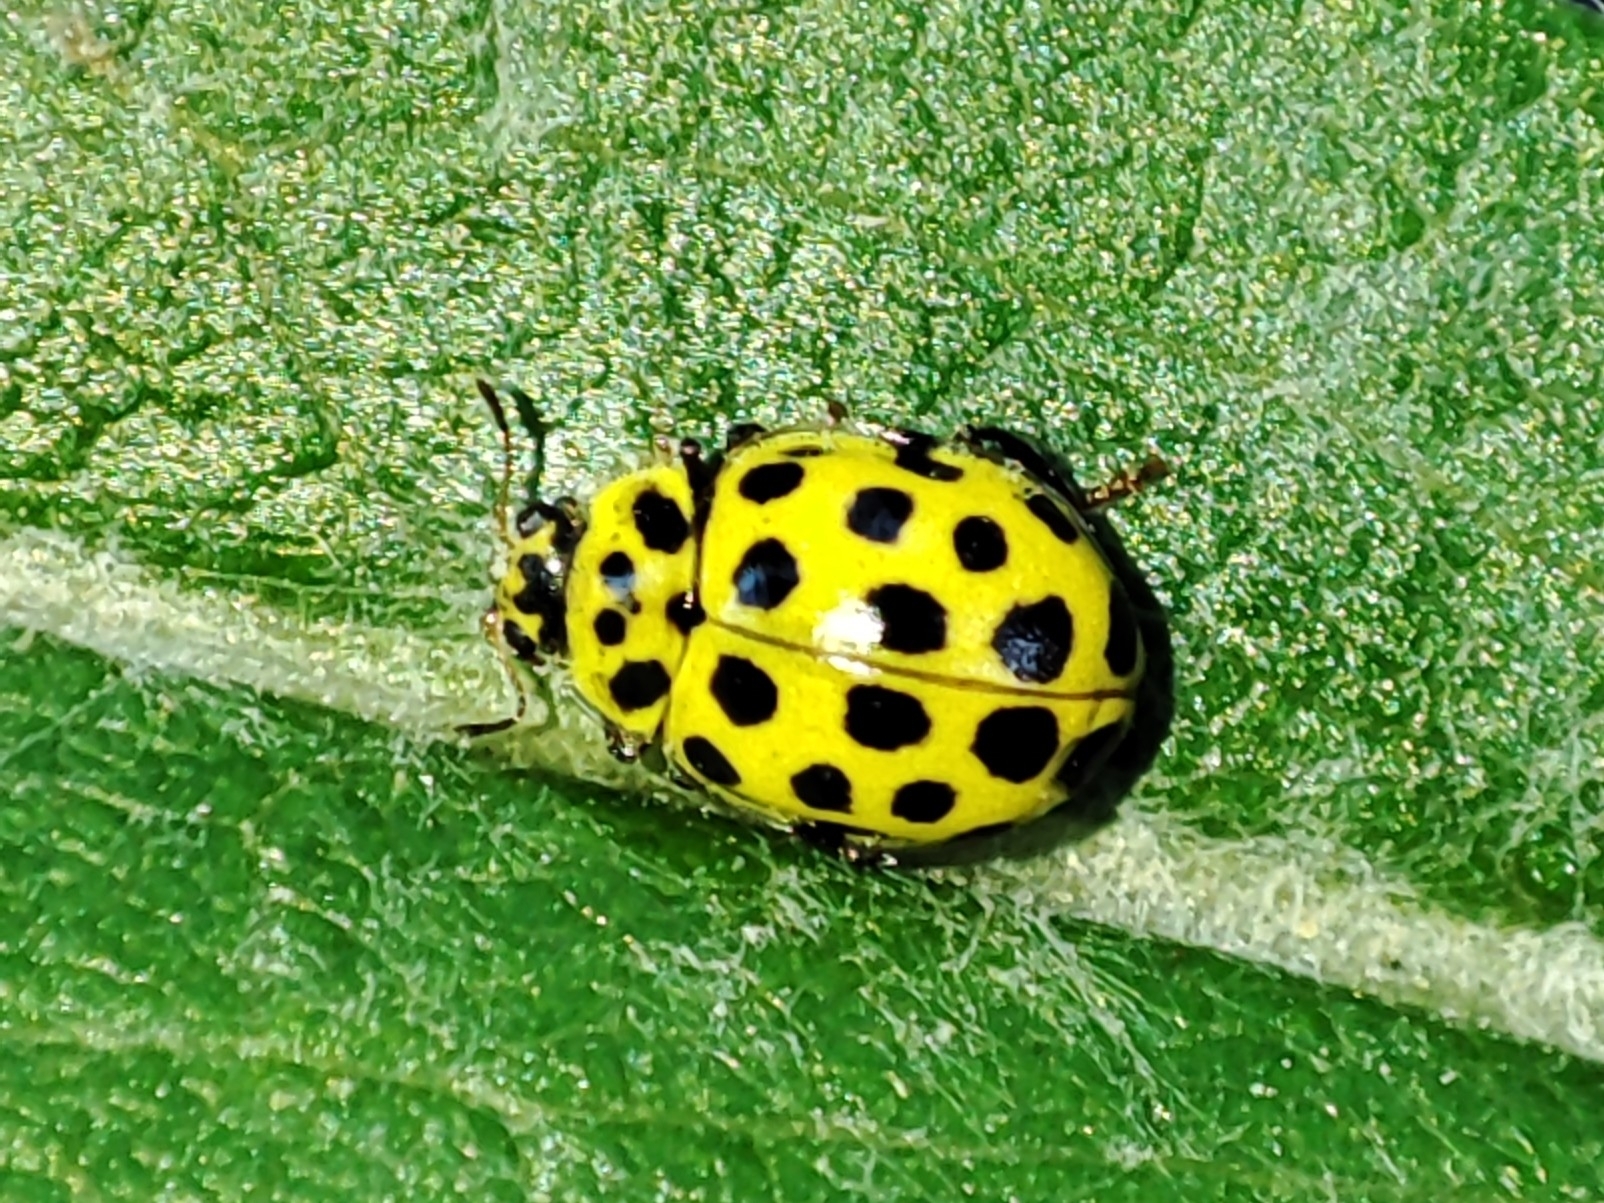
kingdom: Animalia
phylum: Arthropoda
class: Insecta
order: Coleoptera
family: Coccinellidae
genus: Psyllobora
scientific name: Psyllobora vigintiduopunctata
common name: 22-spot ladybird
